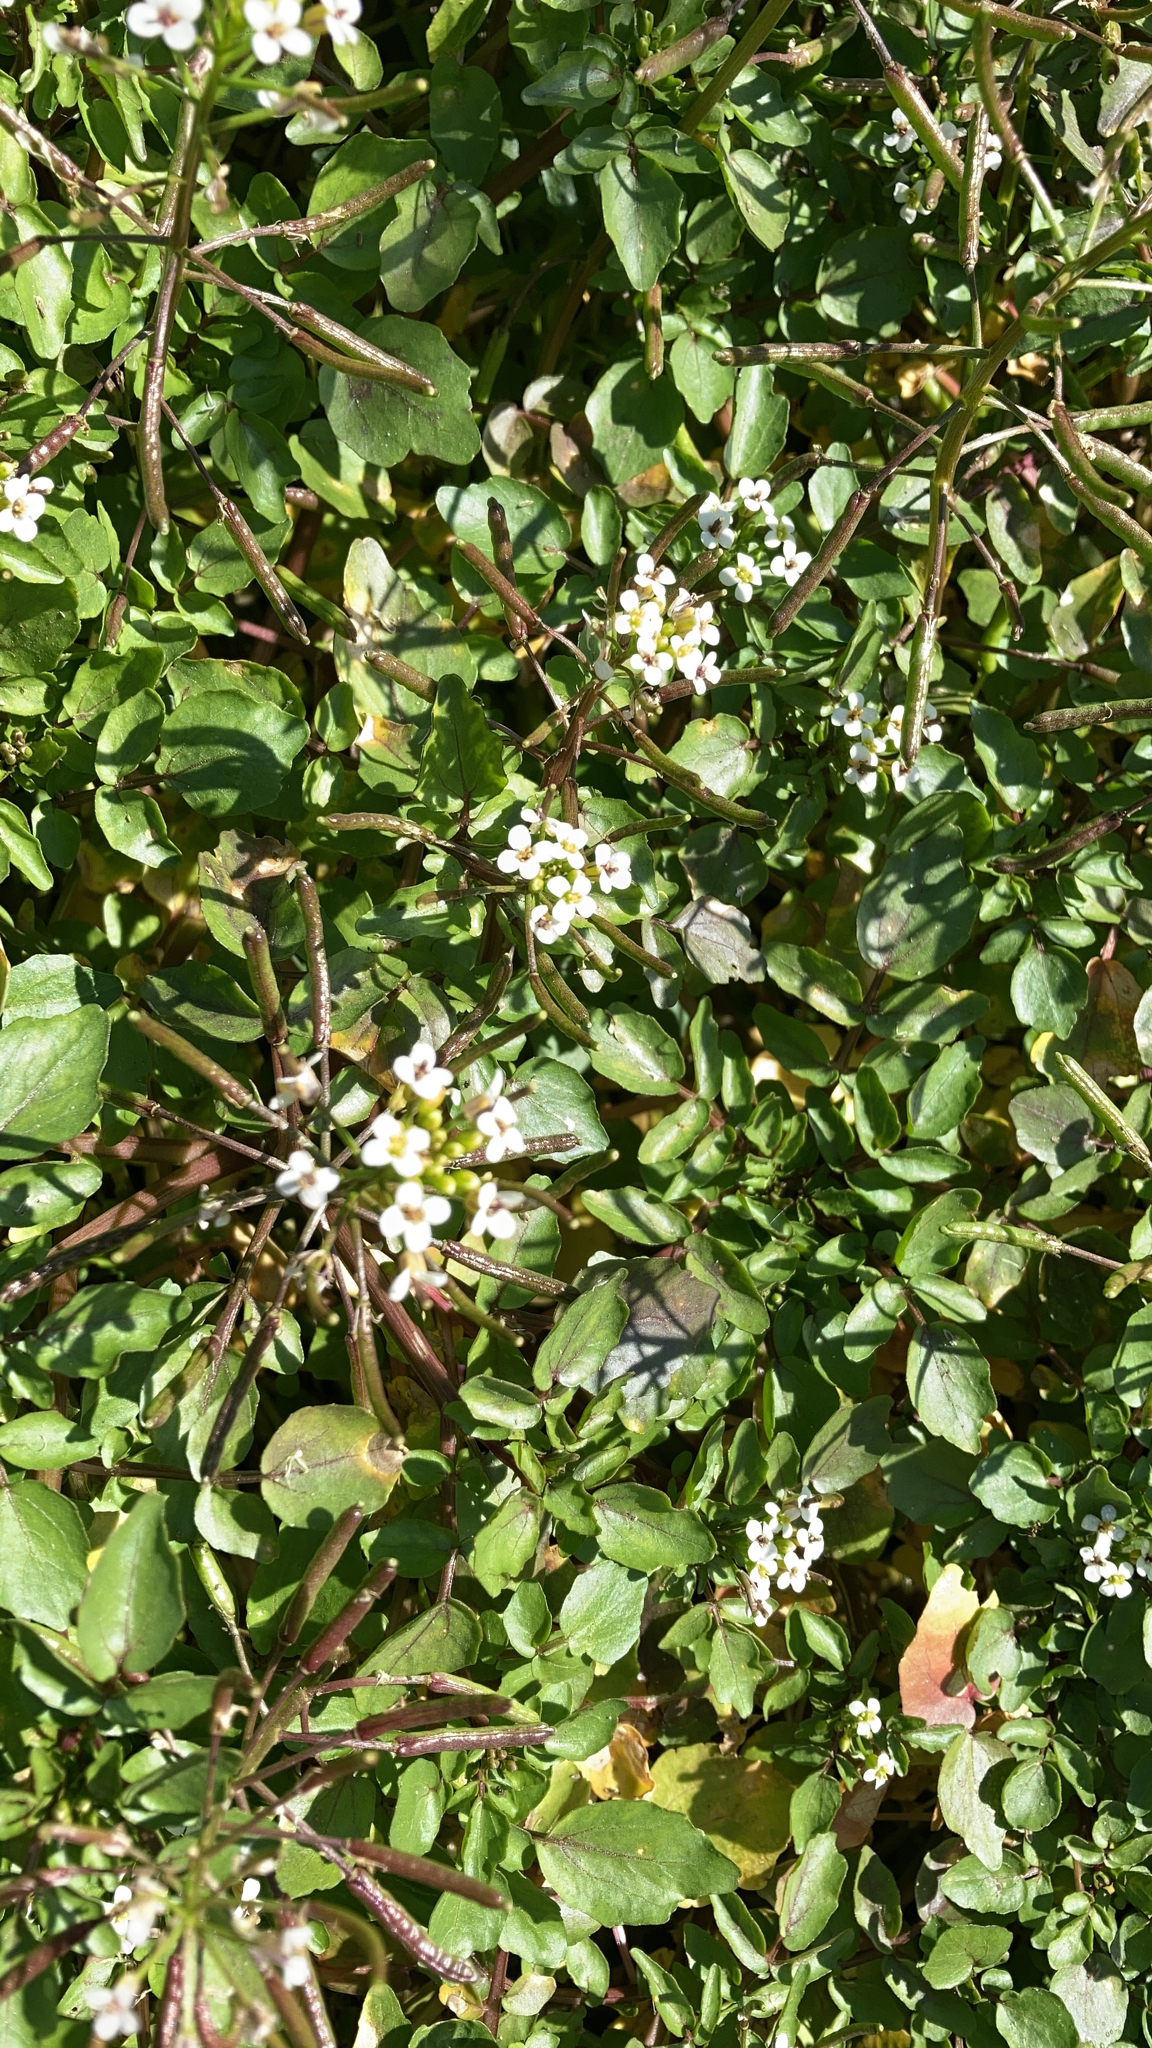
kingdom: Plantae
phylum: Tracheophyta
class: Magnoliopsida
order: Brassicales
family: Brassicaceae
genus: Nasturtium
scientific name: Nasturtium officinale
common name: Watercress
